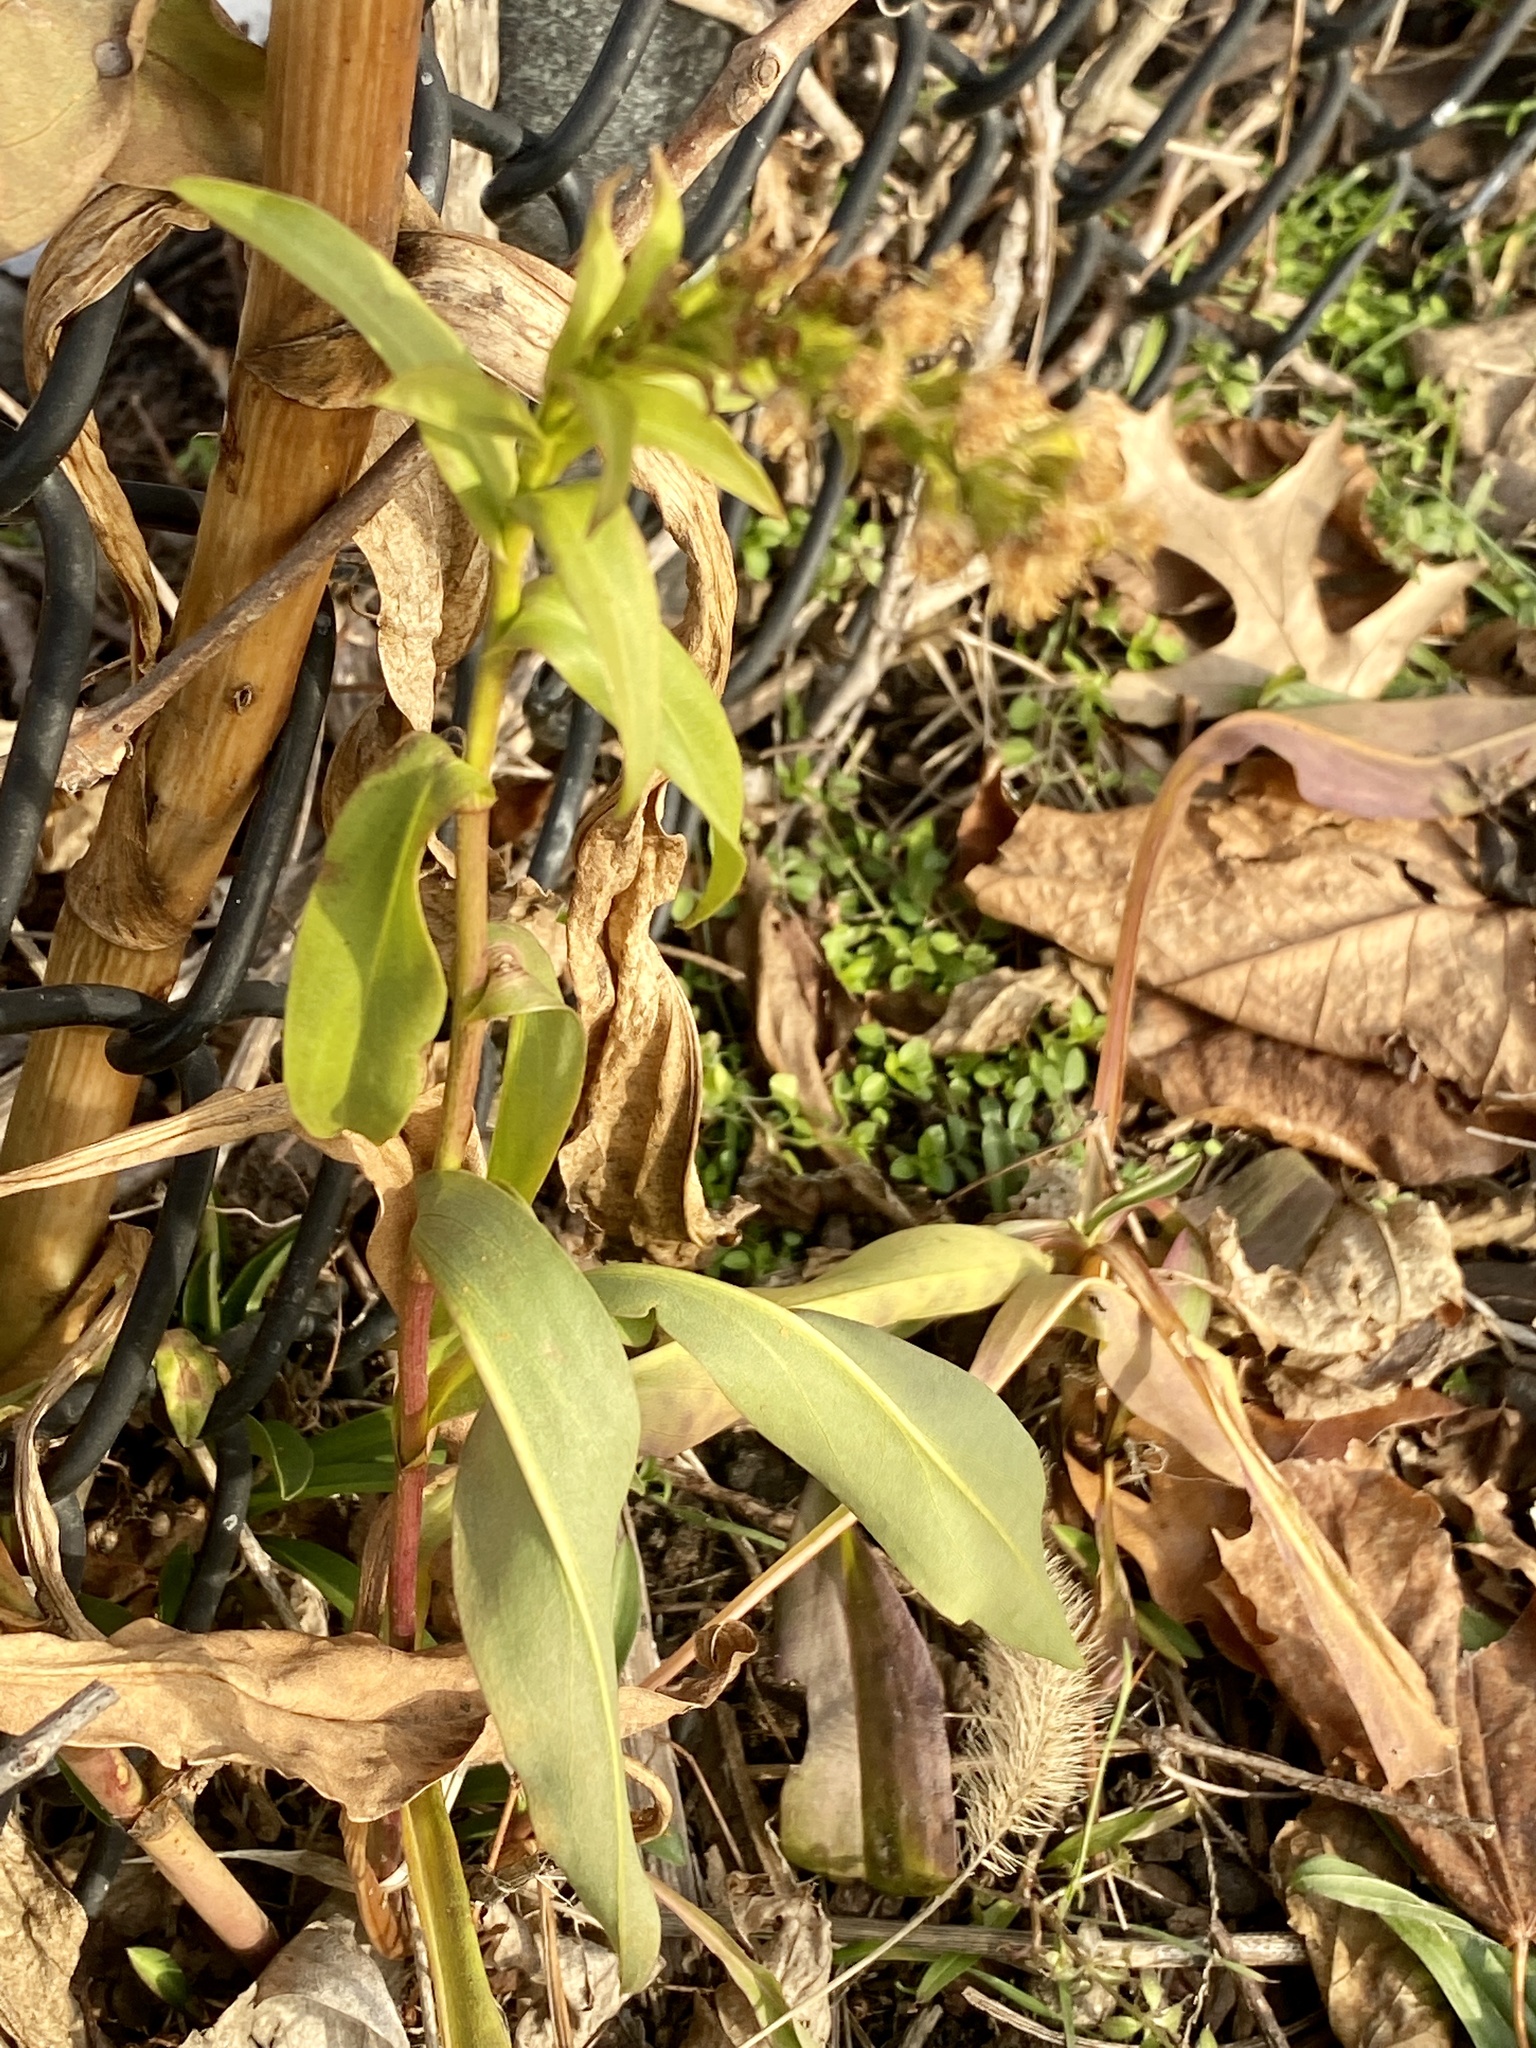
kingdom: Plantae
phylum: Tracheophyta
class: Magnoliopsida
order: Asterales
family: Asteraceae
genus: Solidago
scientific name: Solidago sempervirens
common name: Salt-marsh goldenrod
